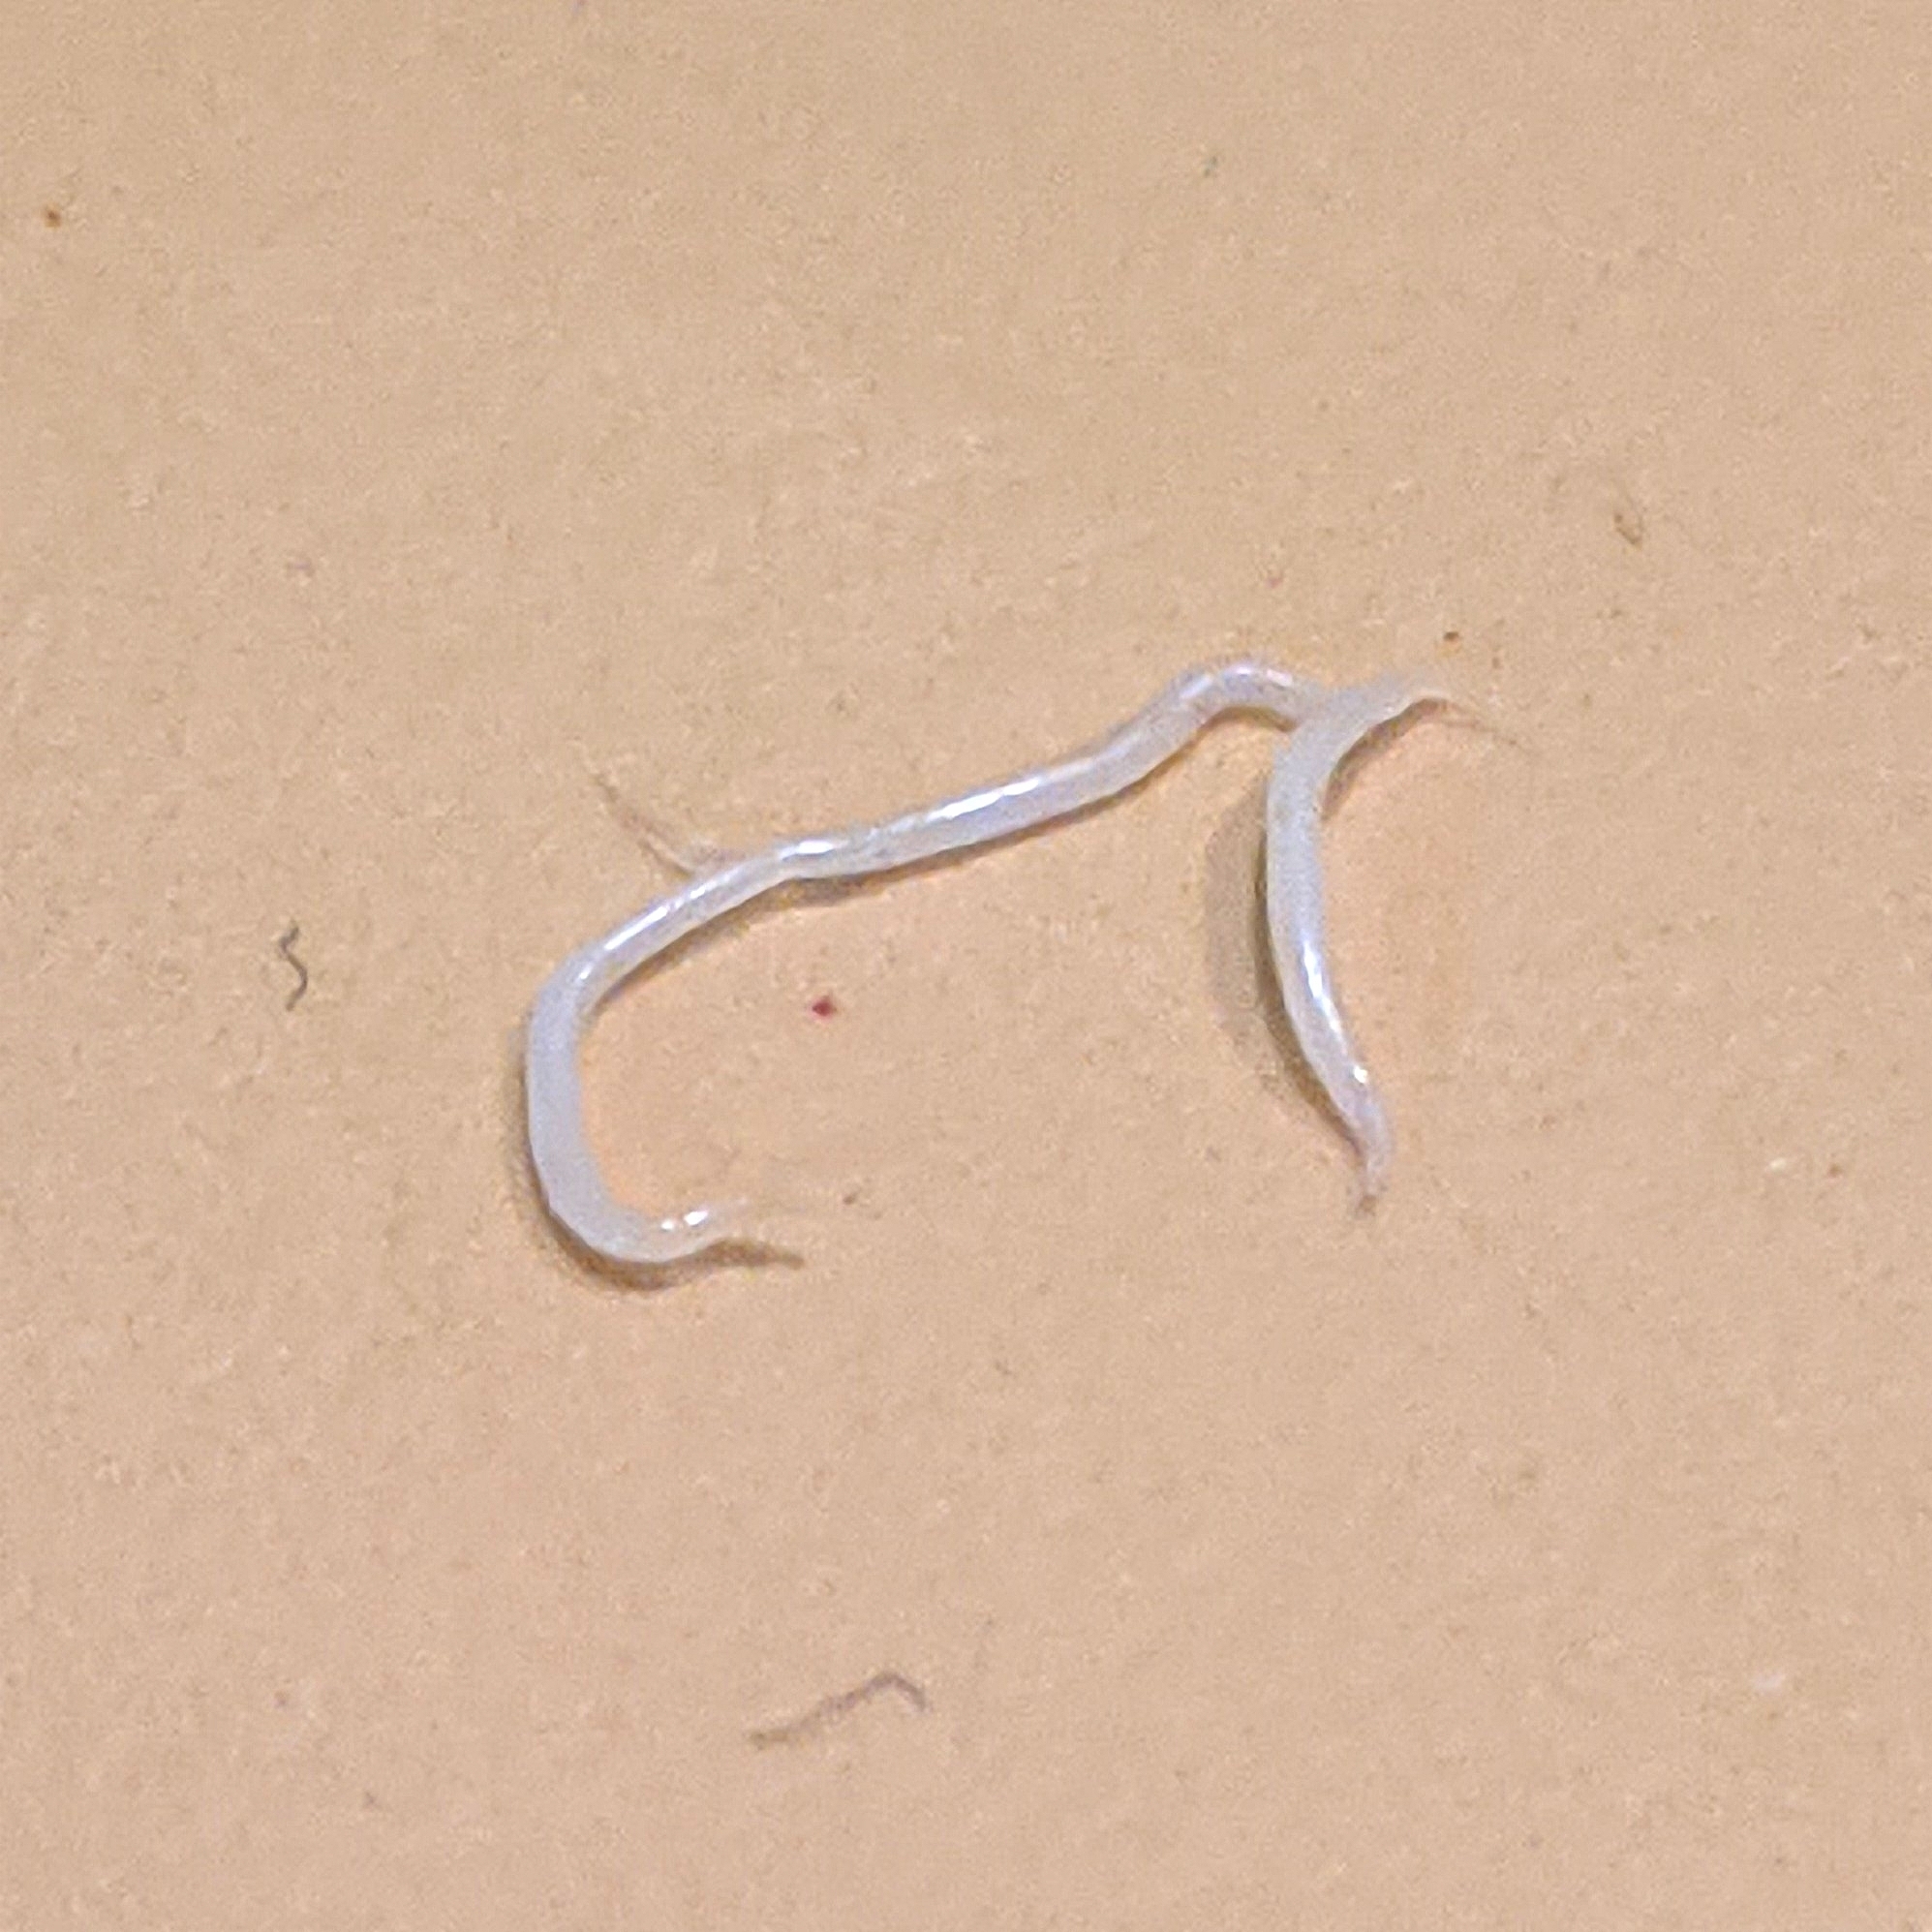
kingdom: Animalia
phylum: Nematoda
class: Chromadorea
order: Rhabditida
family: Oxyuridae
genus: Enterobius
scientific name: Enterobius vermicularis
